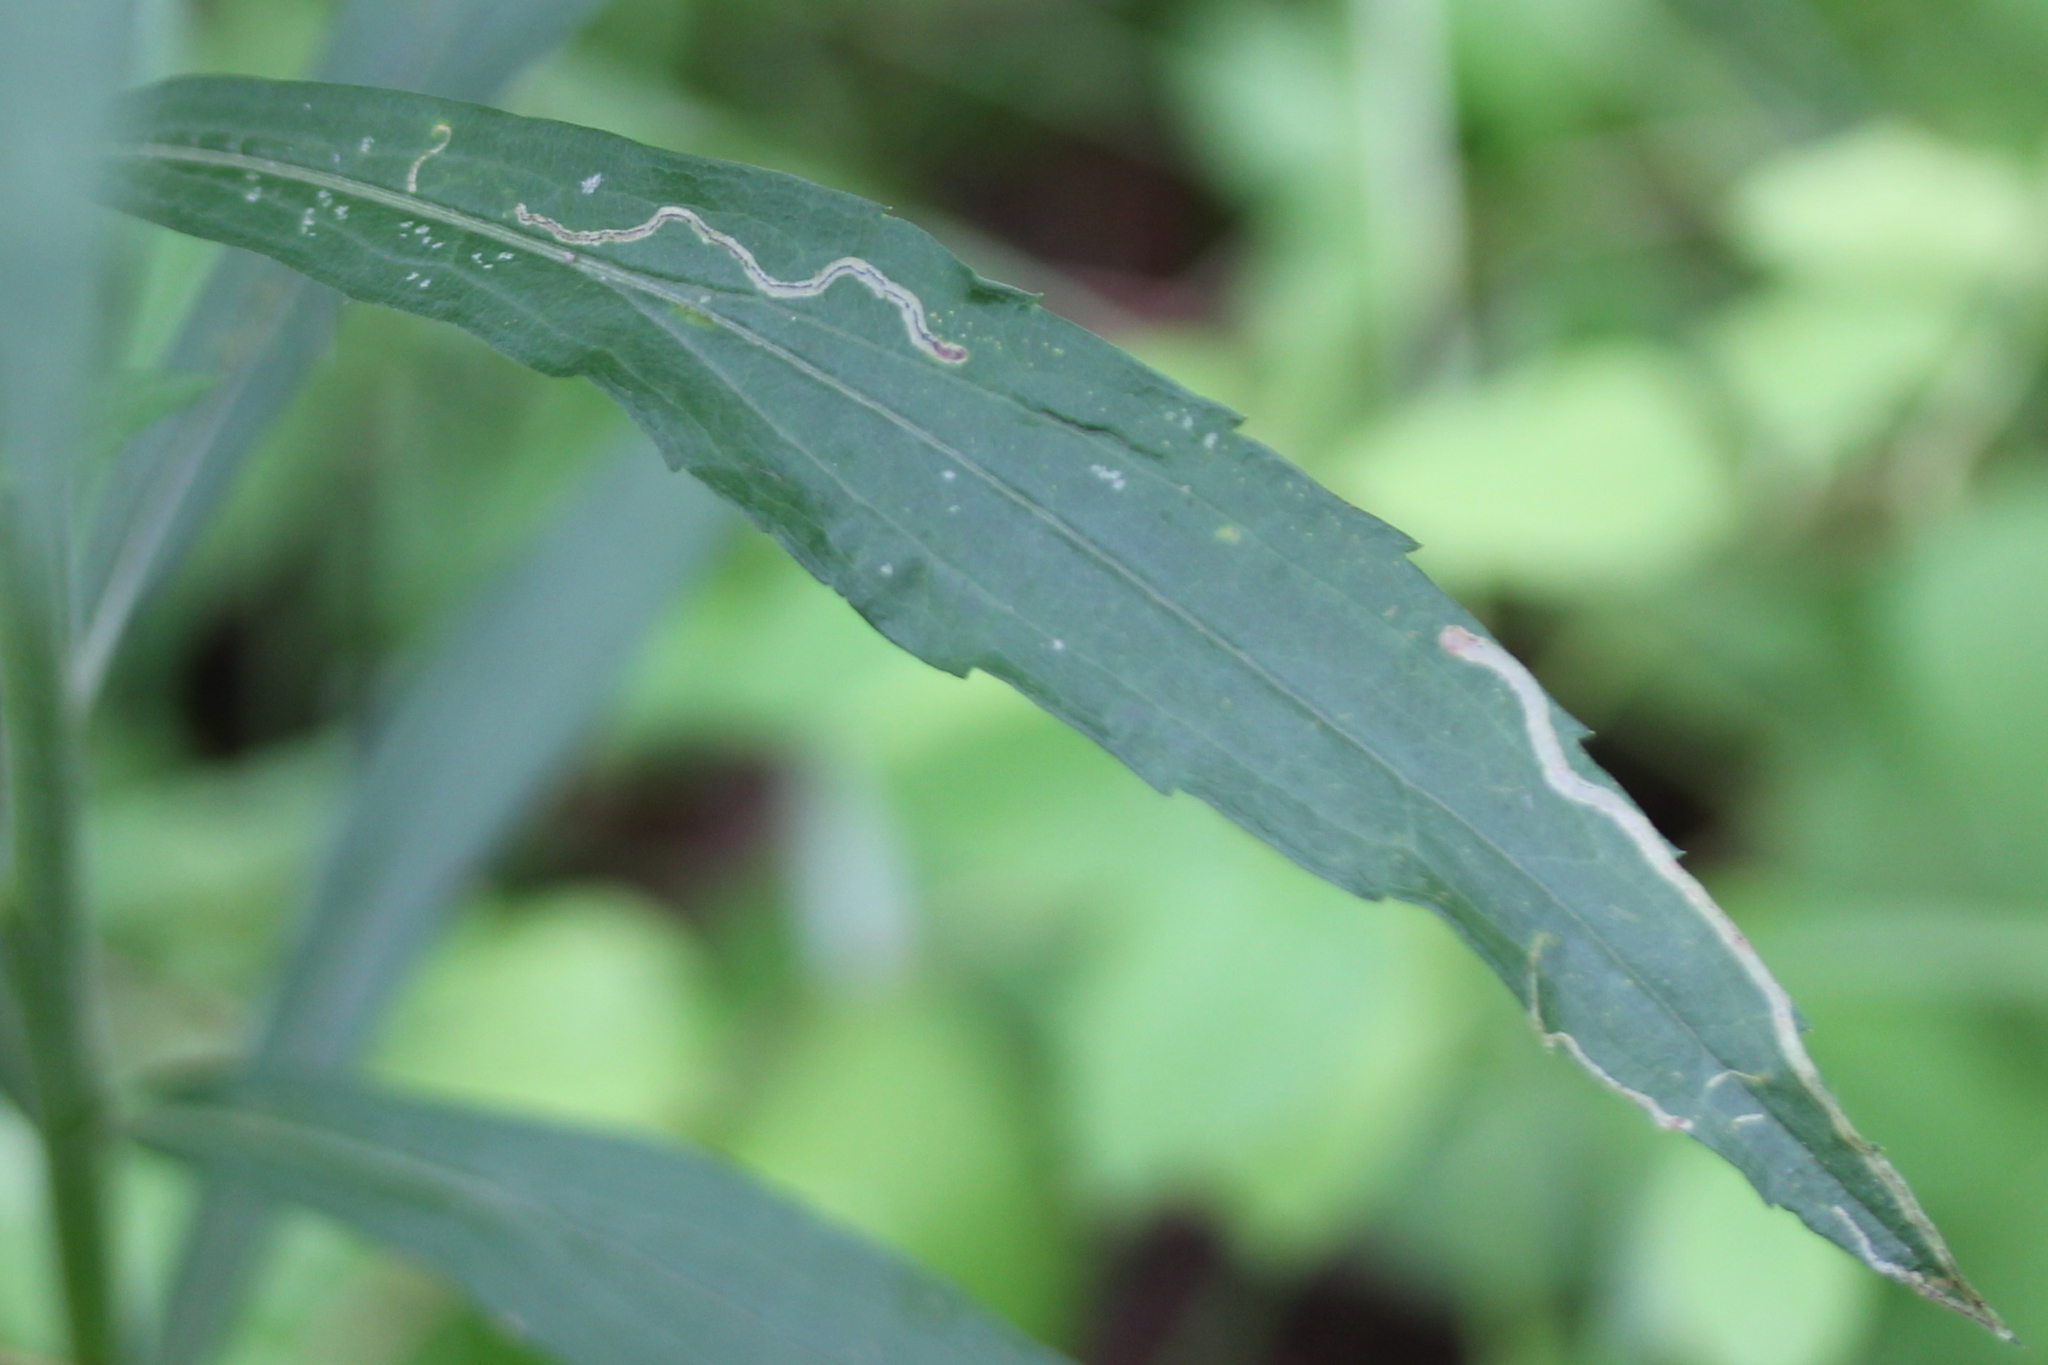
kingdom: Animalia
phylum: Arthropoda
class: Insecta
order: Diptera
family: Agromyzidae
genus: Liriomyza
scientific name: Liriomyza eupatorii
